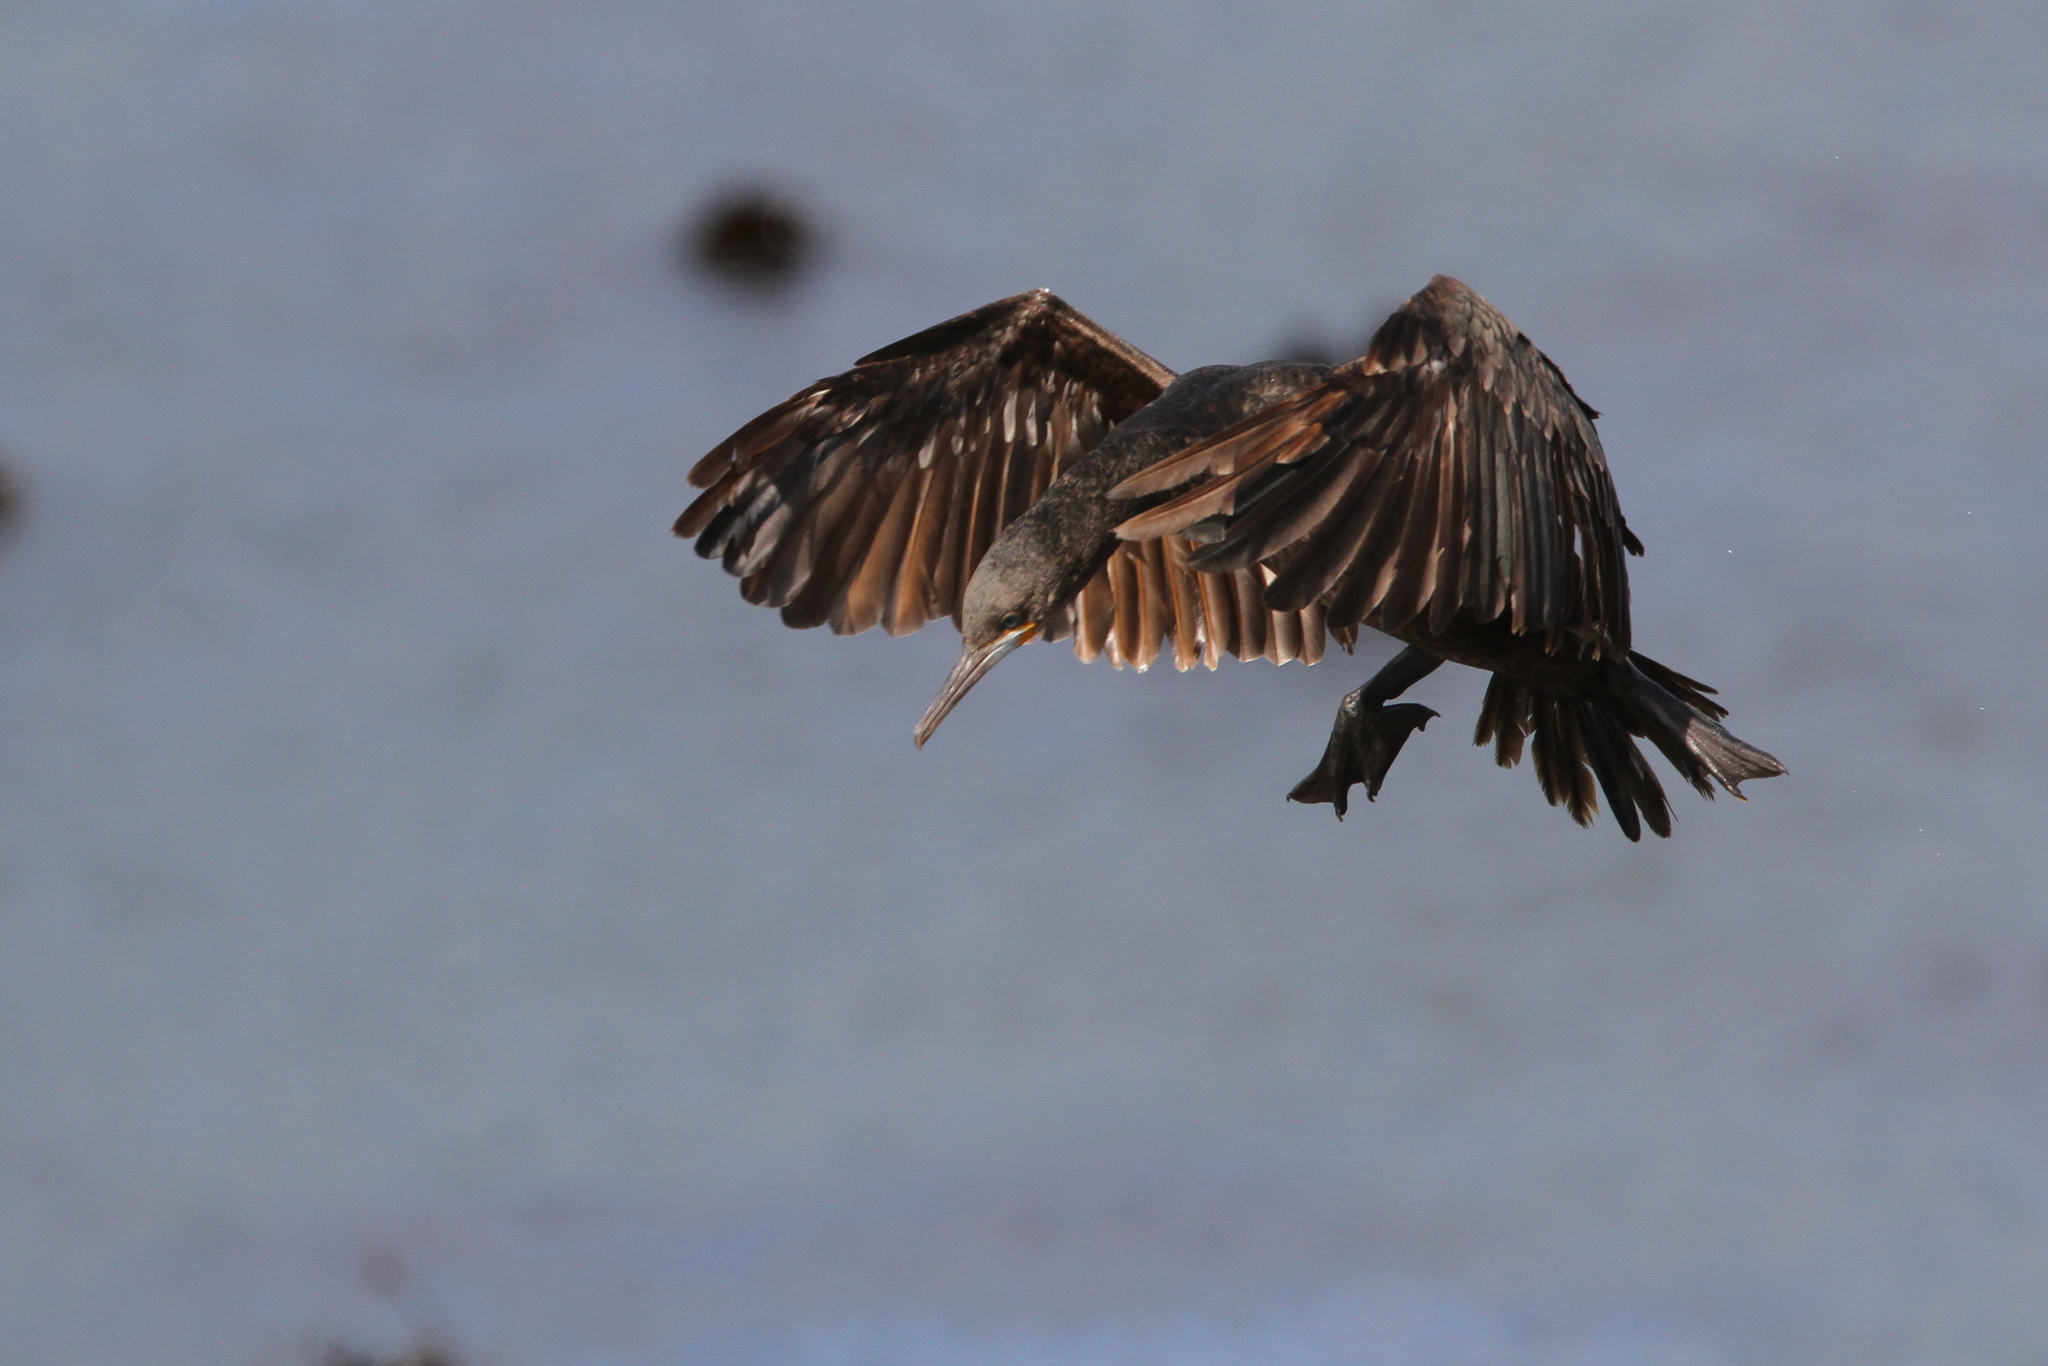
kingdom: Animalia
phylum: Chordata
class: Aves
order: Suliformes
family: Phalacrocoracidae
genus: Phalacrocorax
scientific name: Phalacrocorax capensis
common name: Cape cormorant
